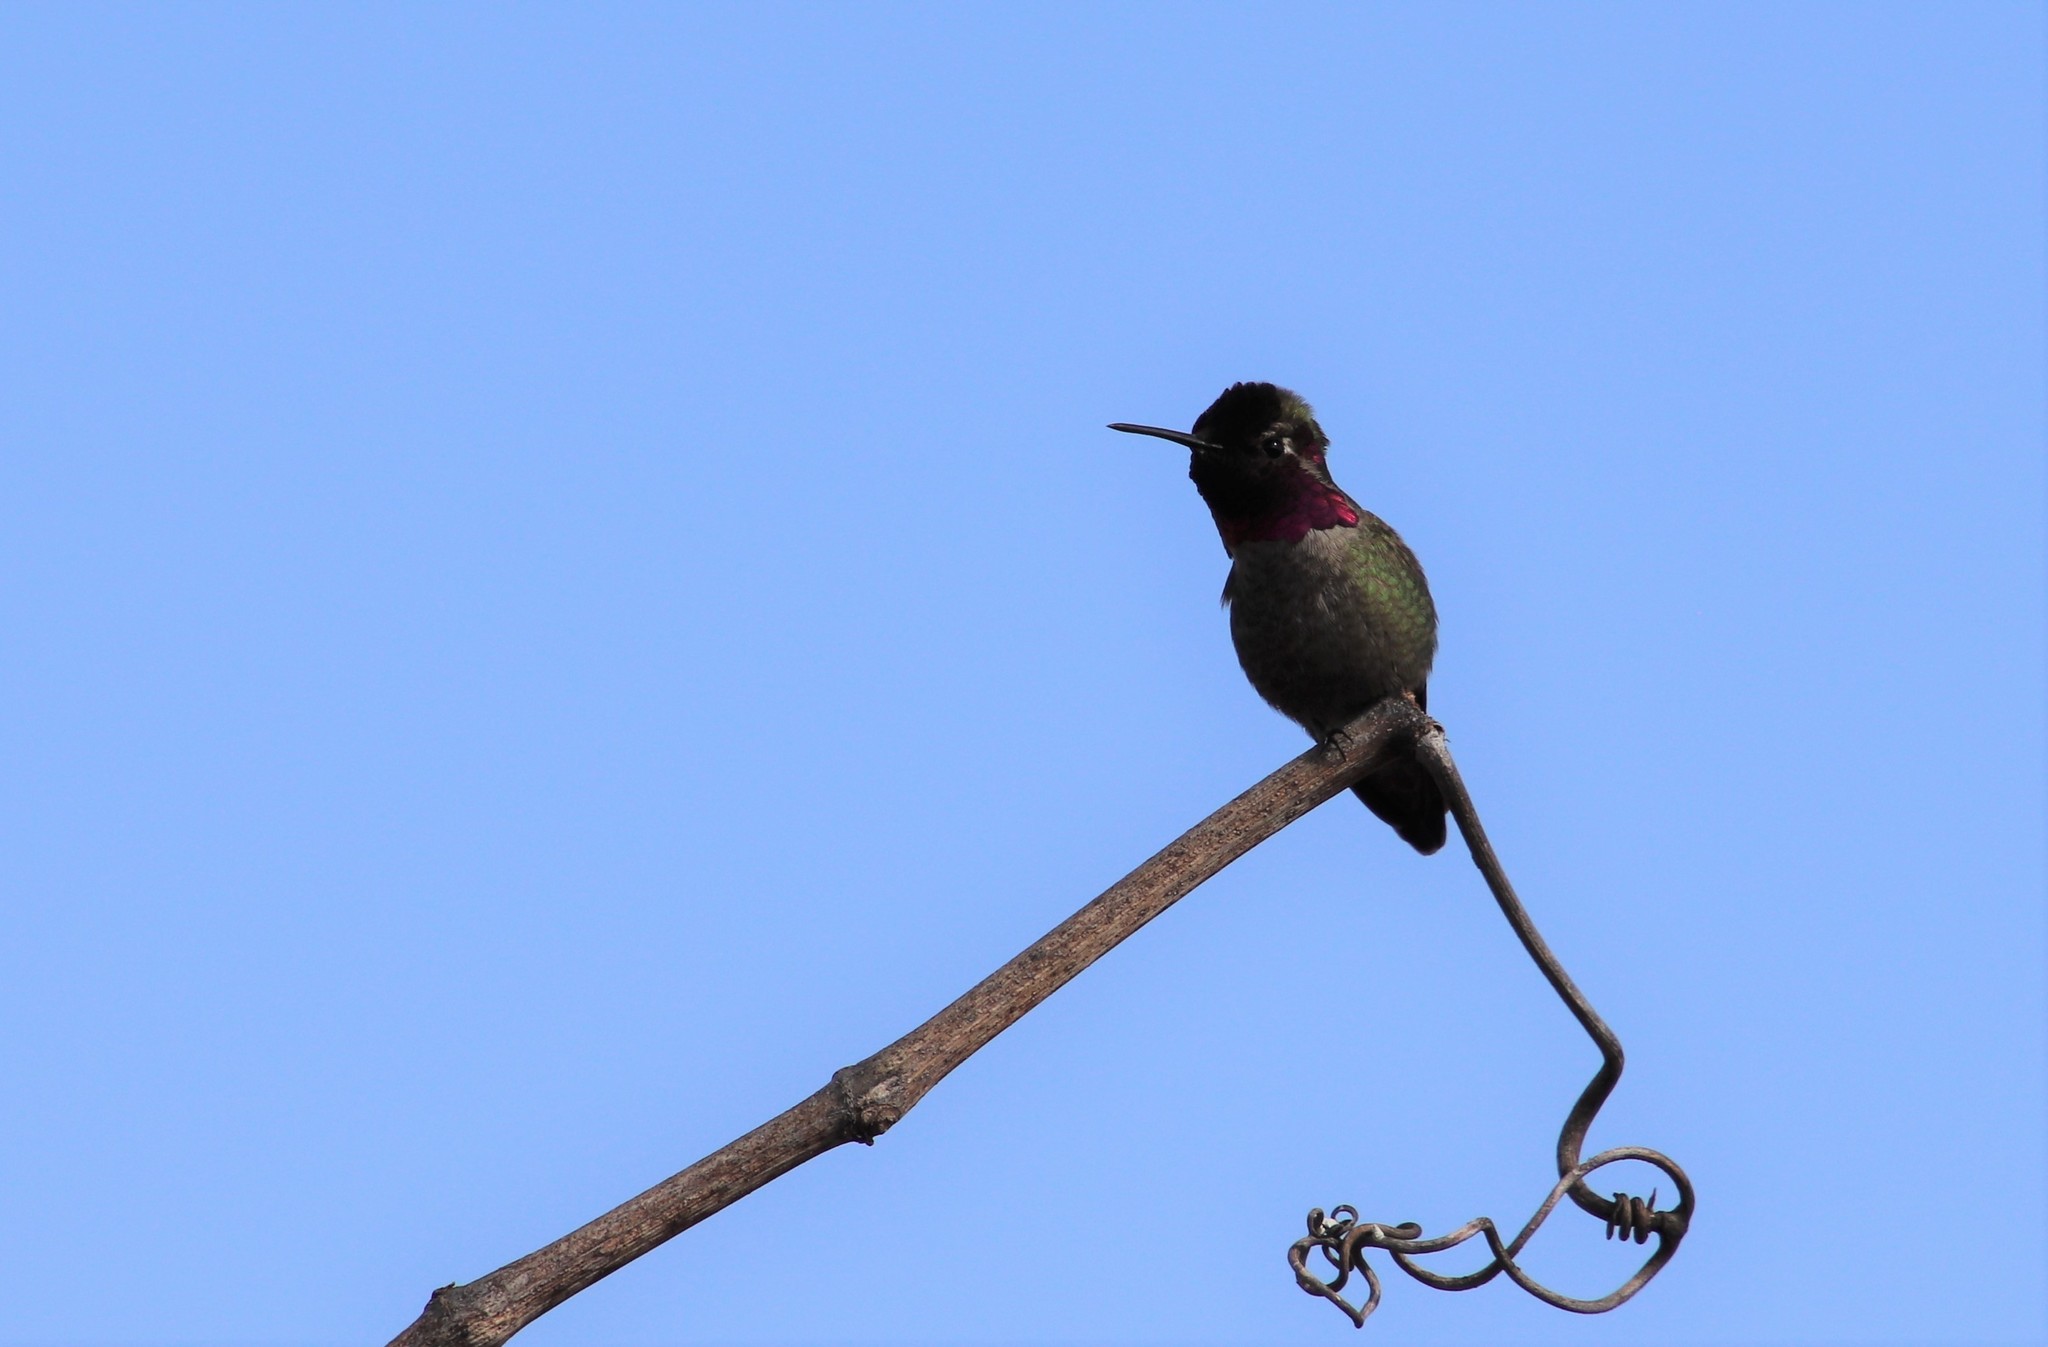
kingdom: Animalia
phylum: Chordata
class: Aves
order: Apodiformes
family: Trochilidae
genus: Calypte
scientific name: Calypte anna
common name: Anna's hummingbird
